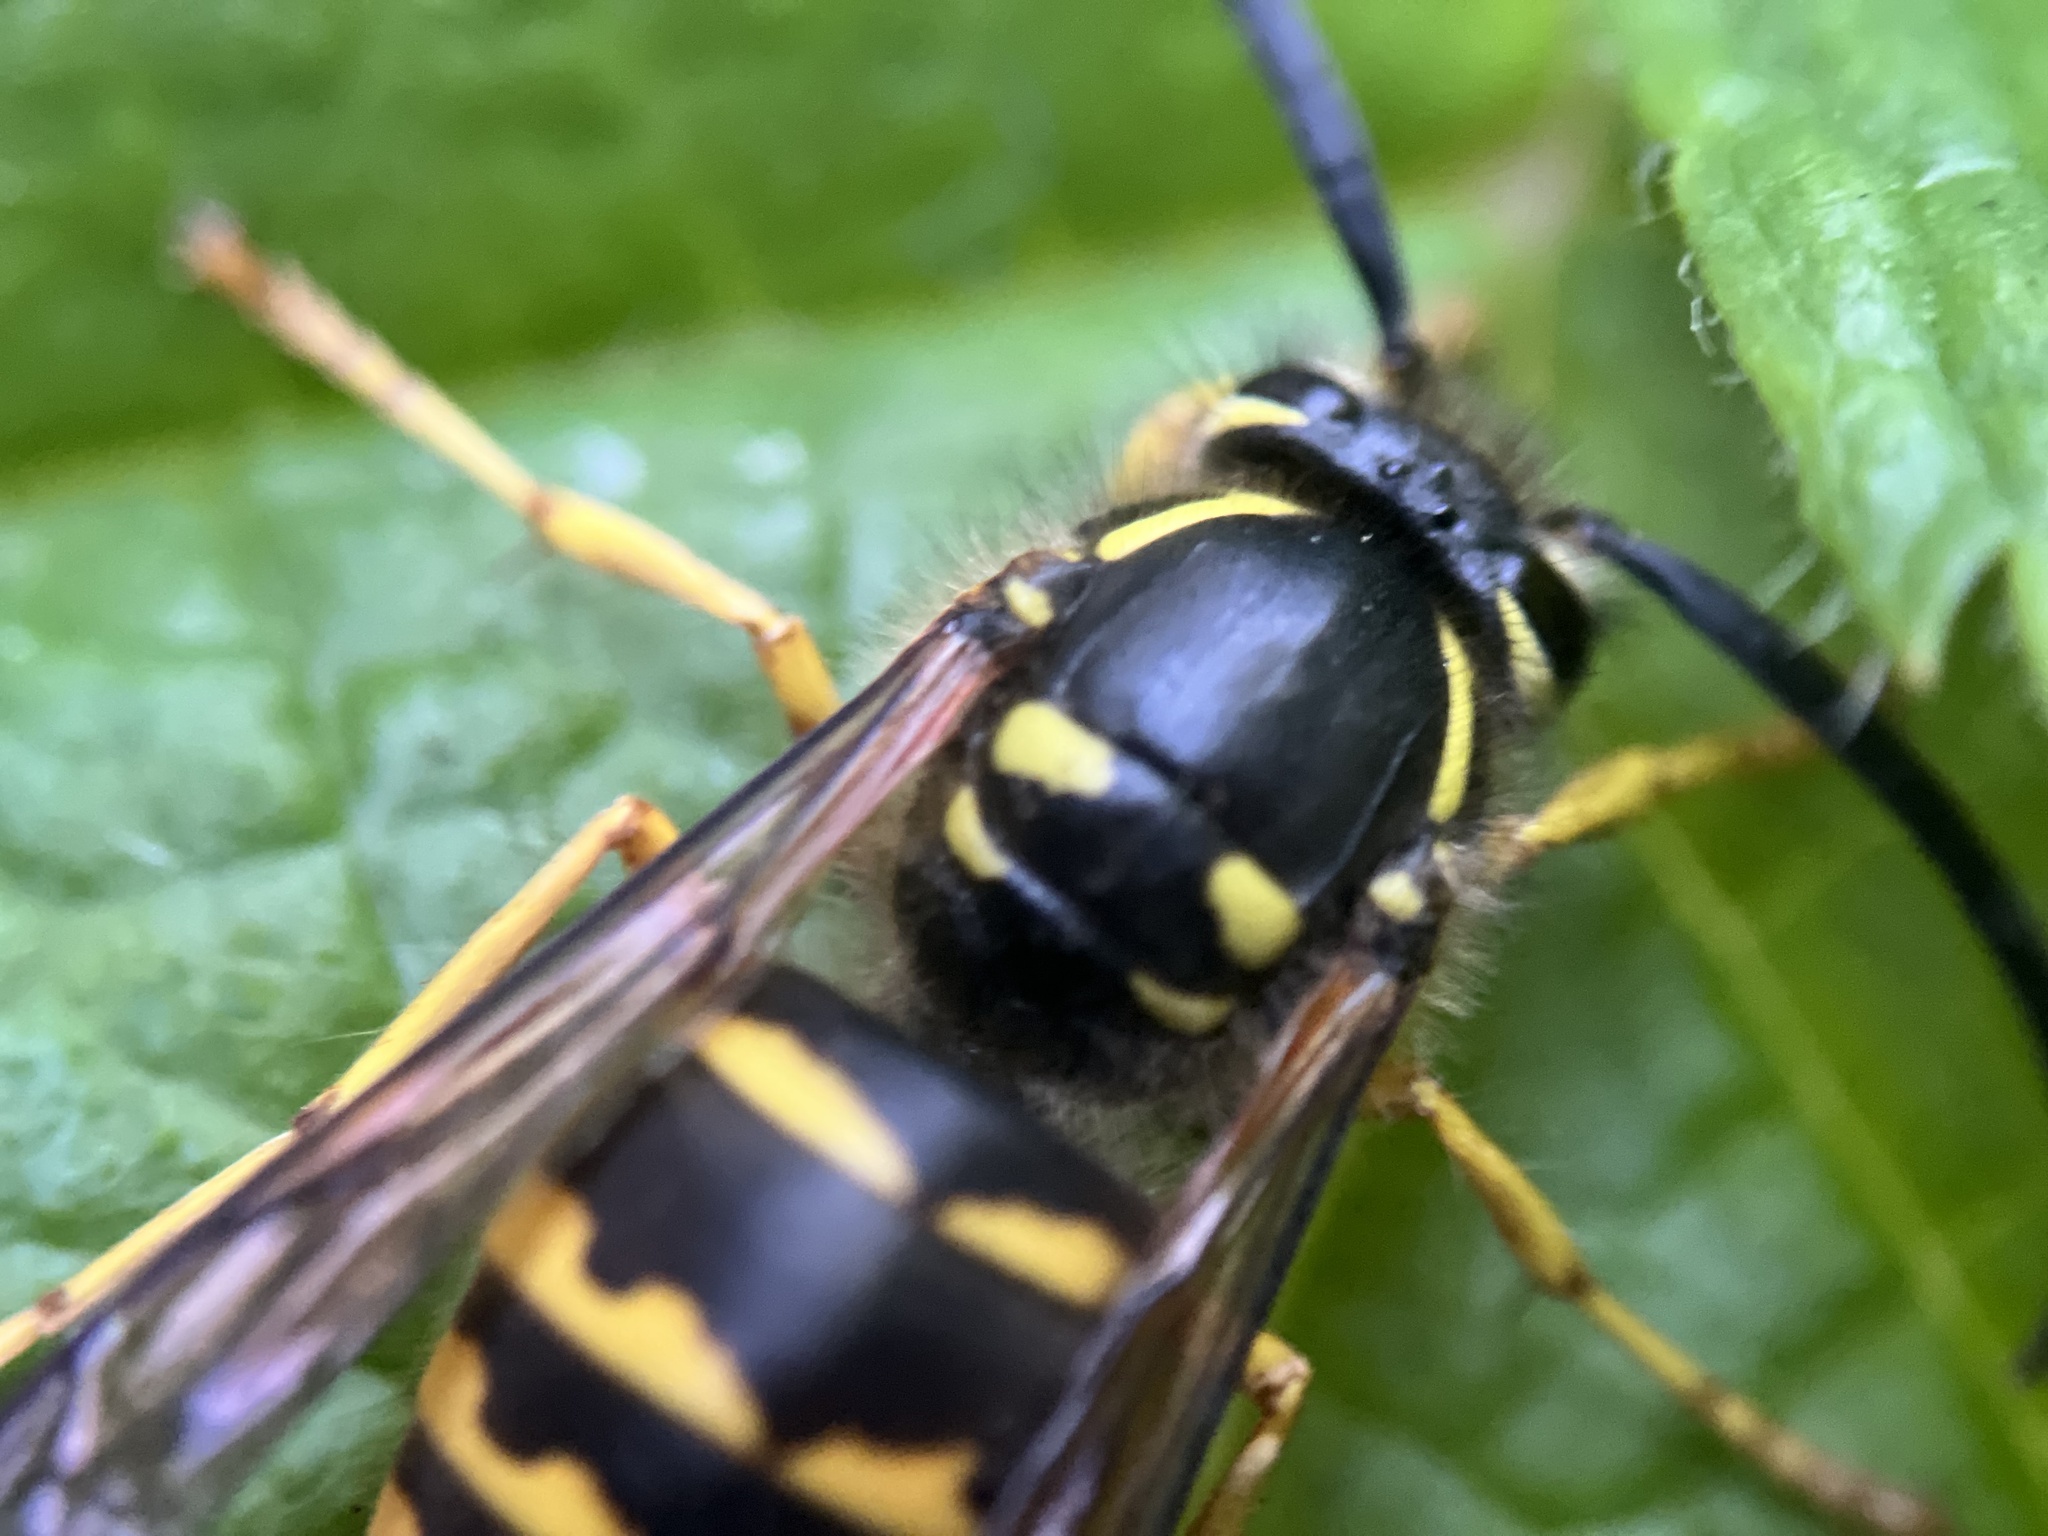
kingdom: Animalia
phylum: Arthropoda
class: Insecta
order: Hymenoptera
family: Vespidae
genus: Dolichovespula
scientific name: Dolichovespula arenaria
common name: Aerial yellowjacket
